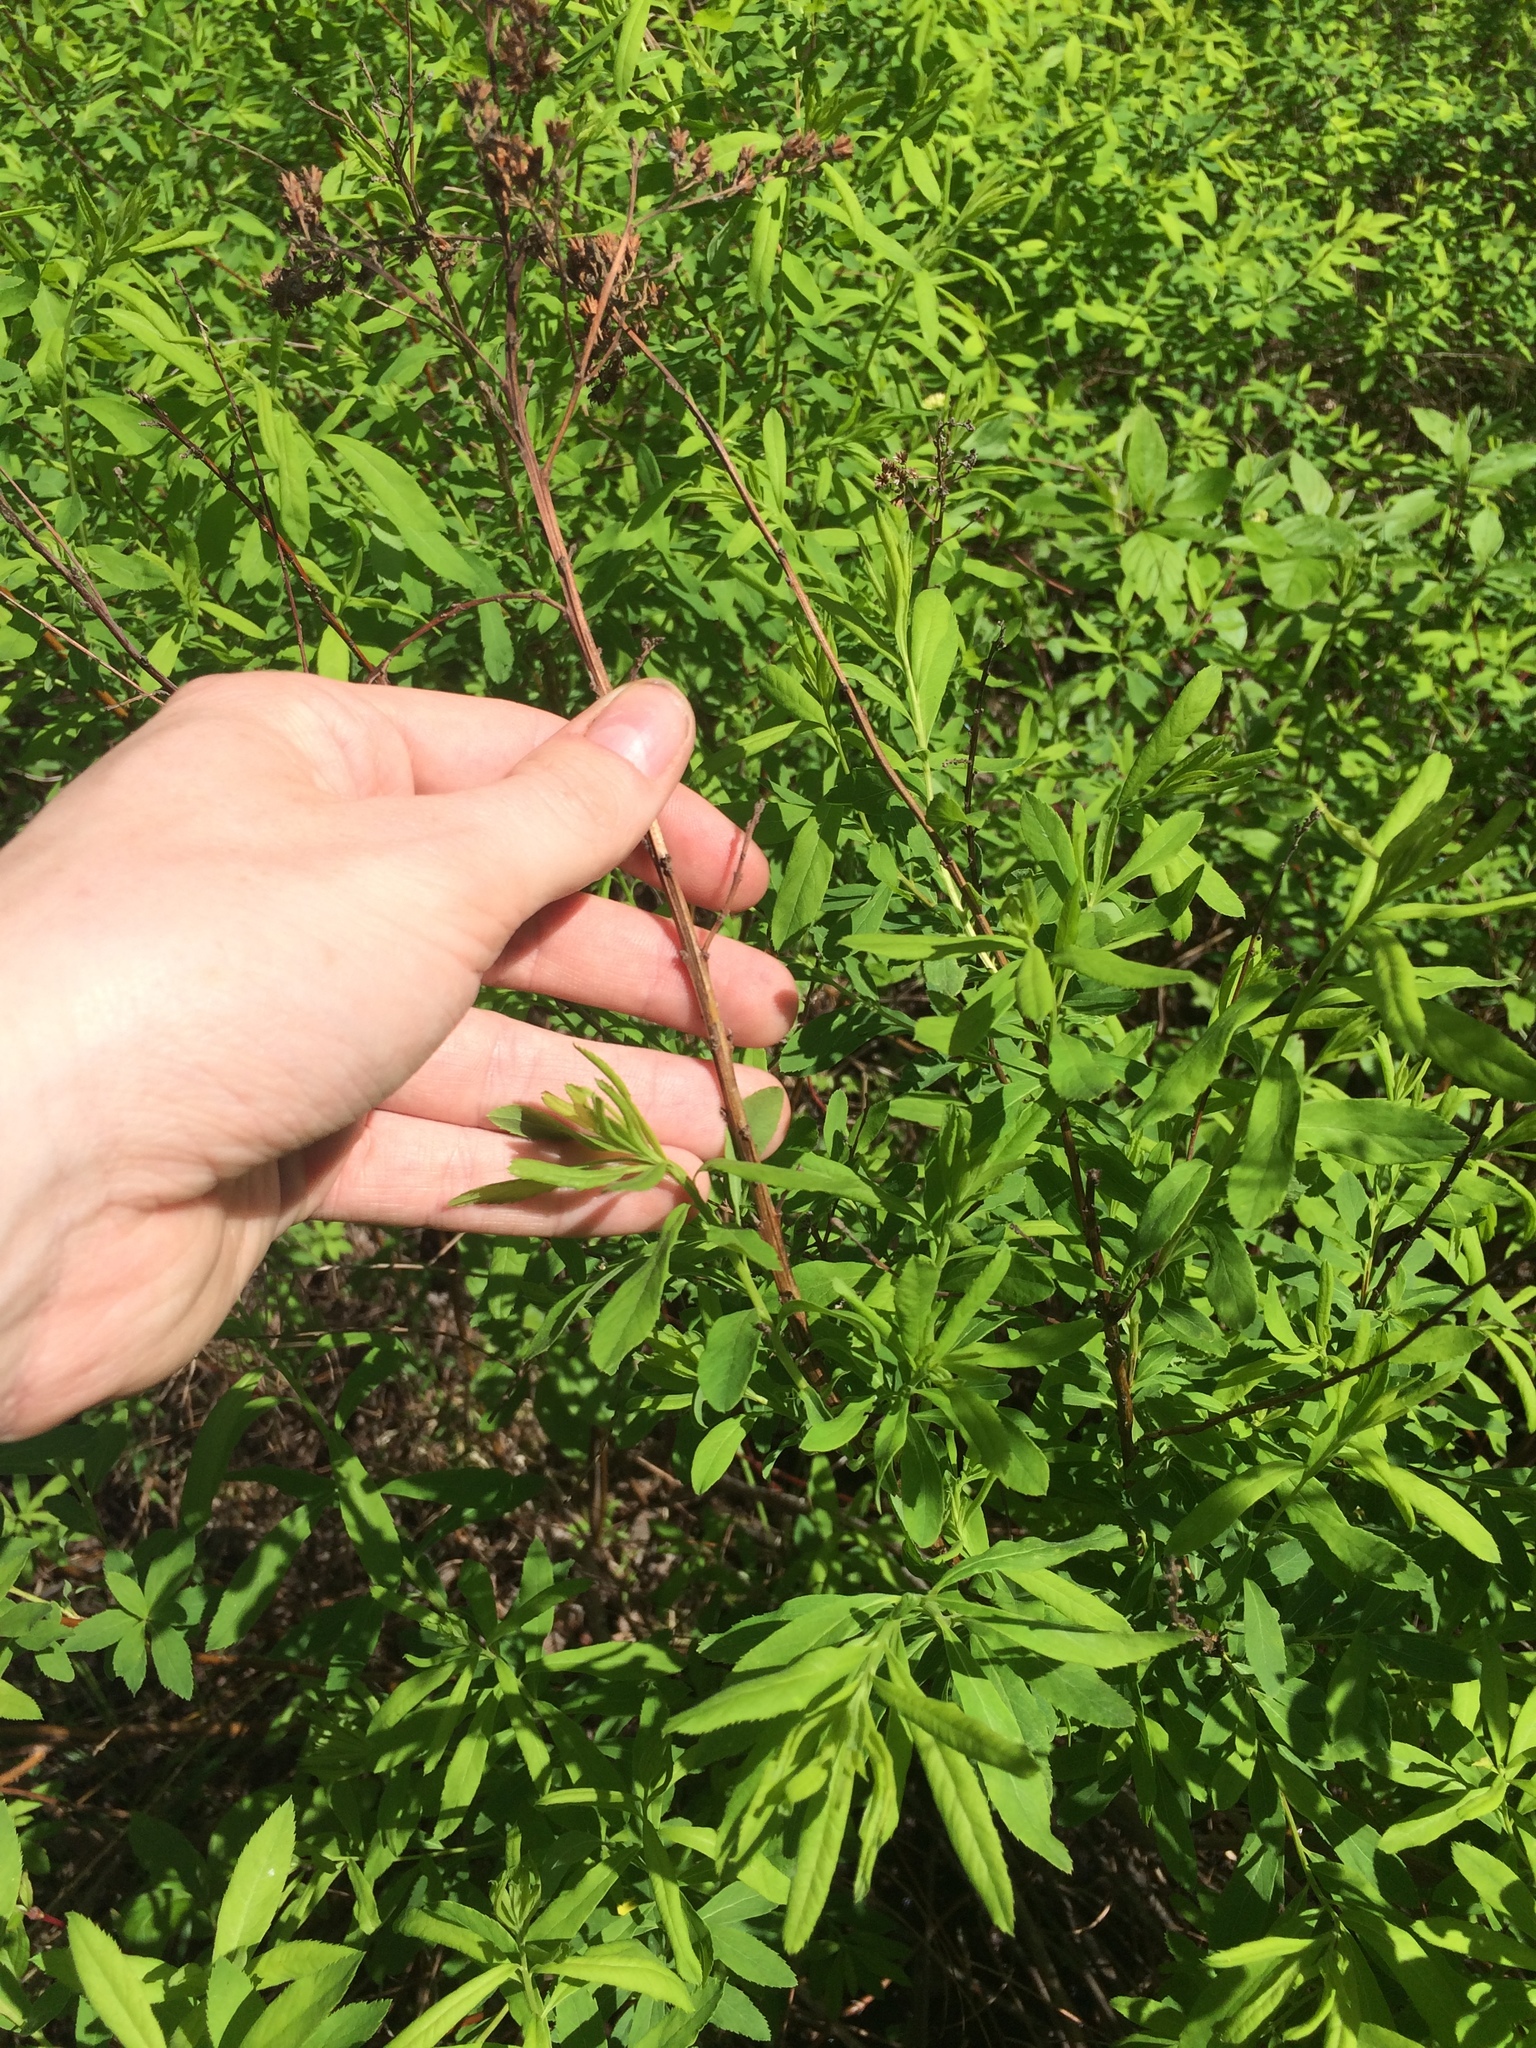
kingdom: Plantae
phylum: Tracheophyta
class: Magnoliopsida
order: Rosales
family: Rosaceae
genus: Spiraea
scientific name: Spiraea alba
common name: Pale bridewort
